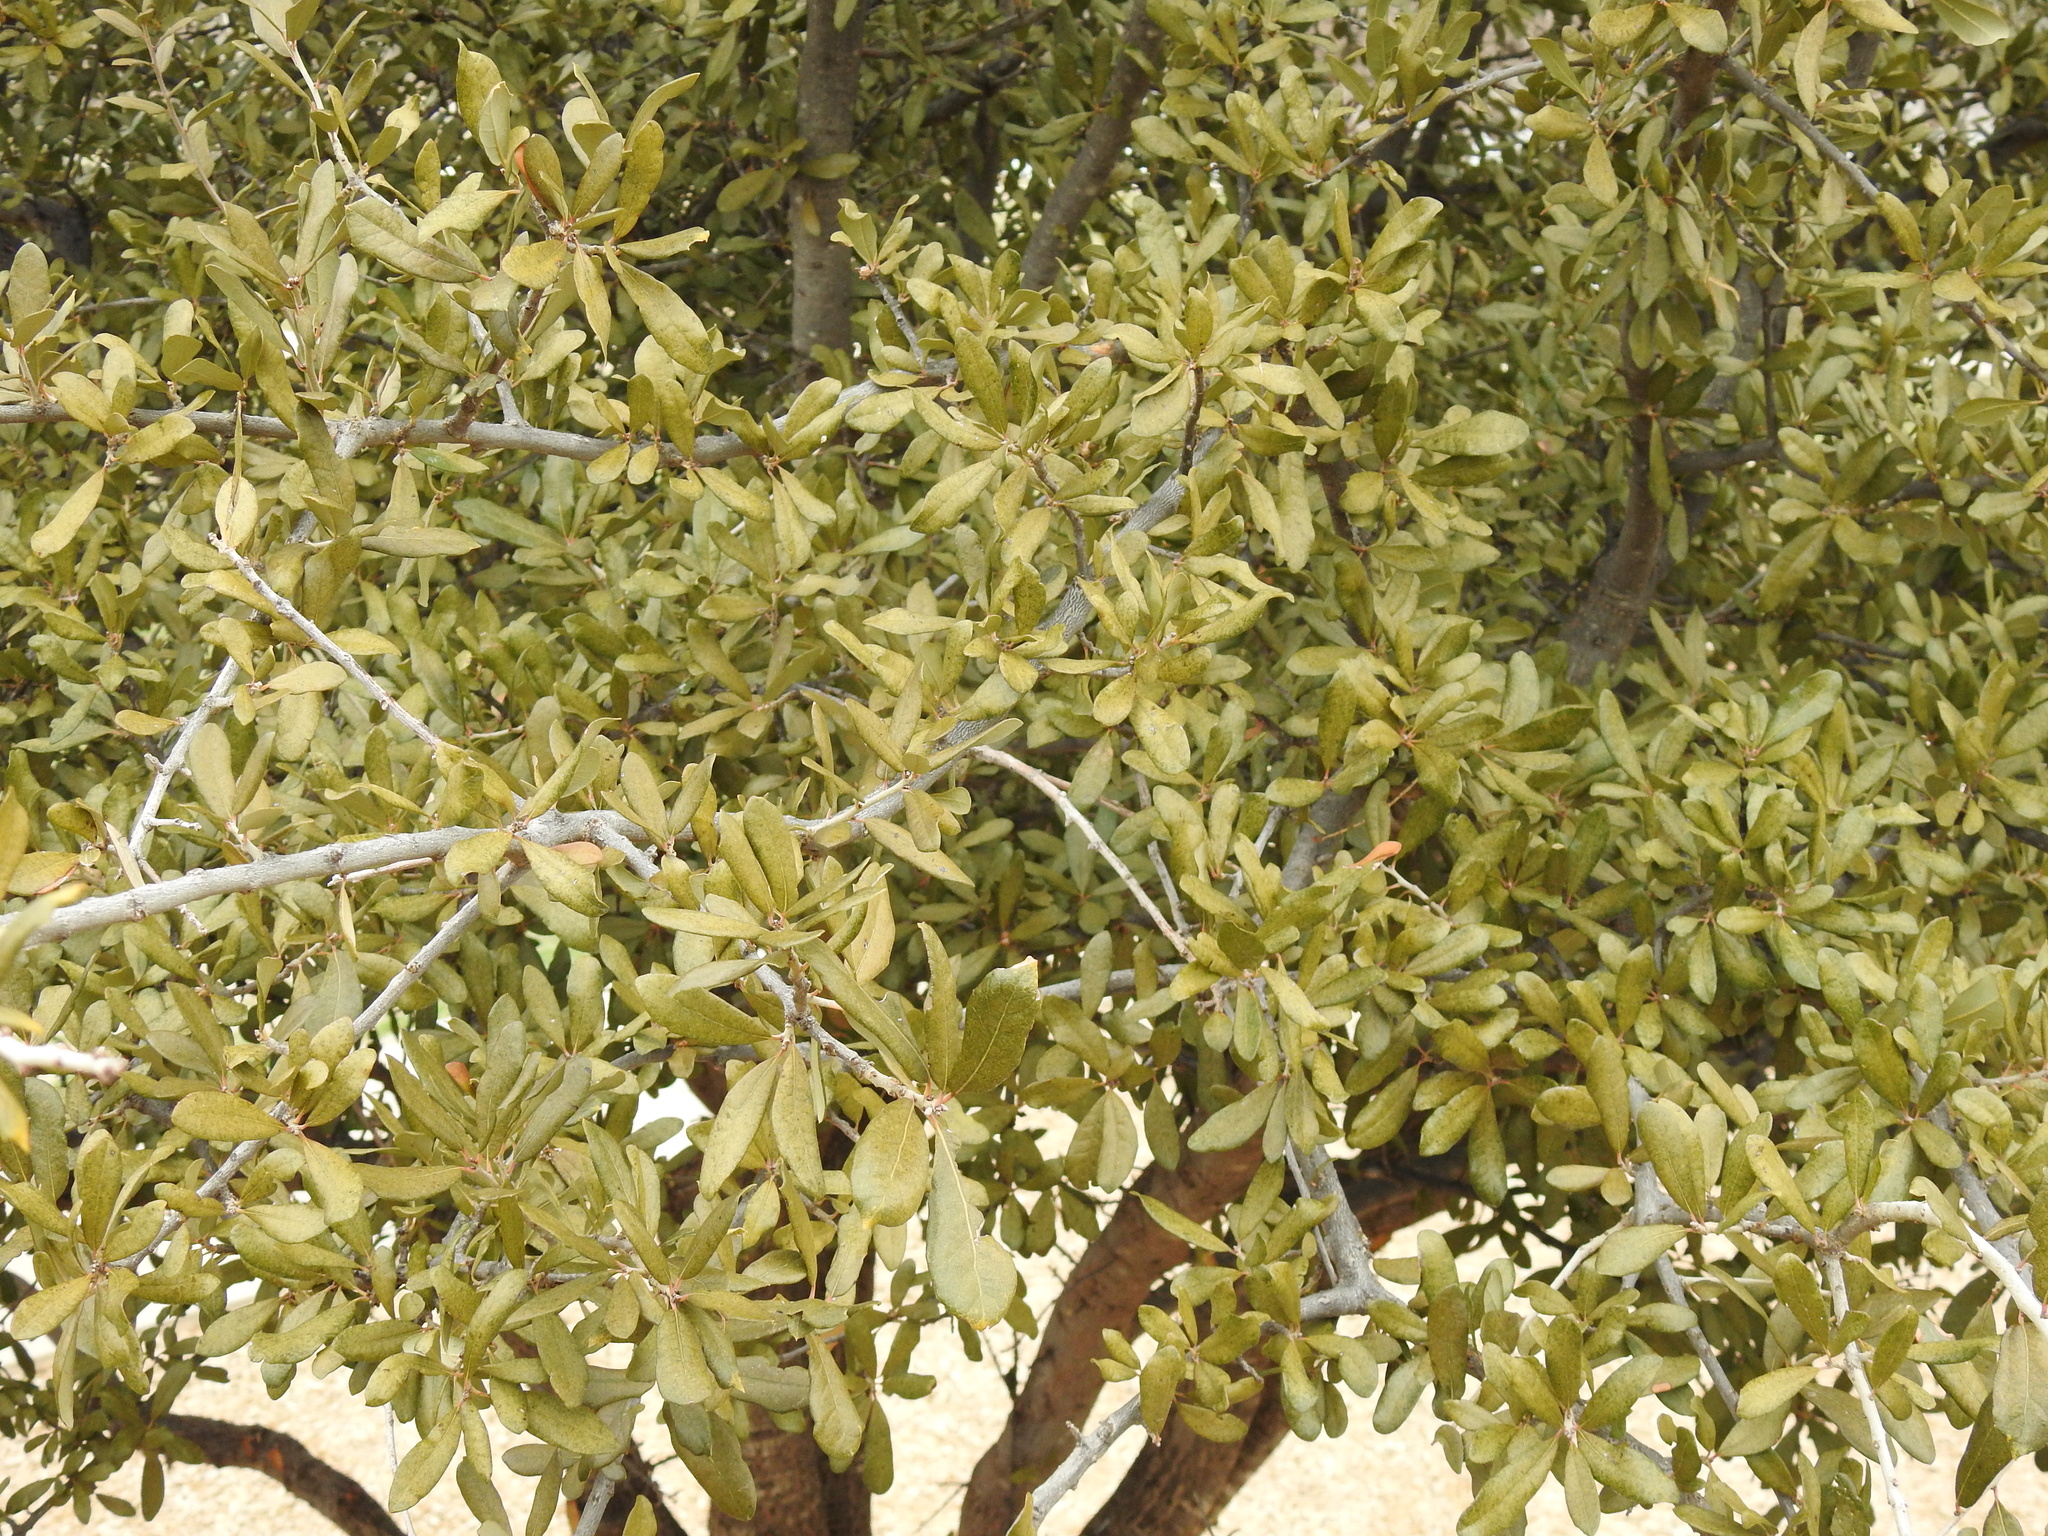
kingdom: Plantae
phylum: Tracheophyta
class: Magnoliopsida
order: Fagales
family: Fagaceae
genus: Quercus
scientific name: Quercus fusiformis
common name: Texas live oak
